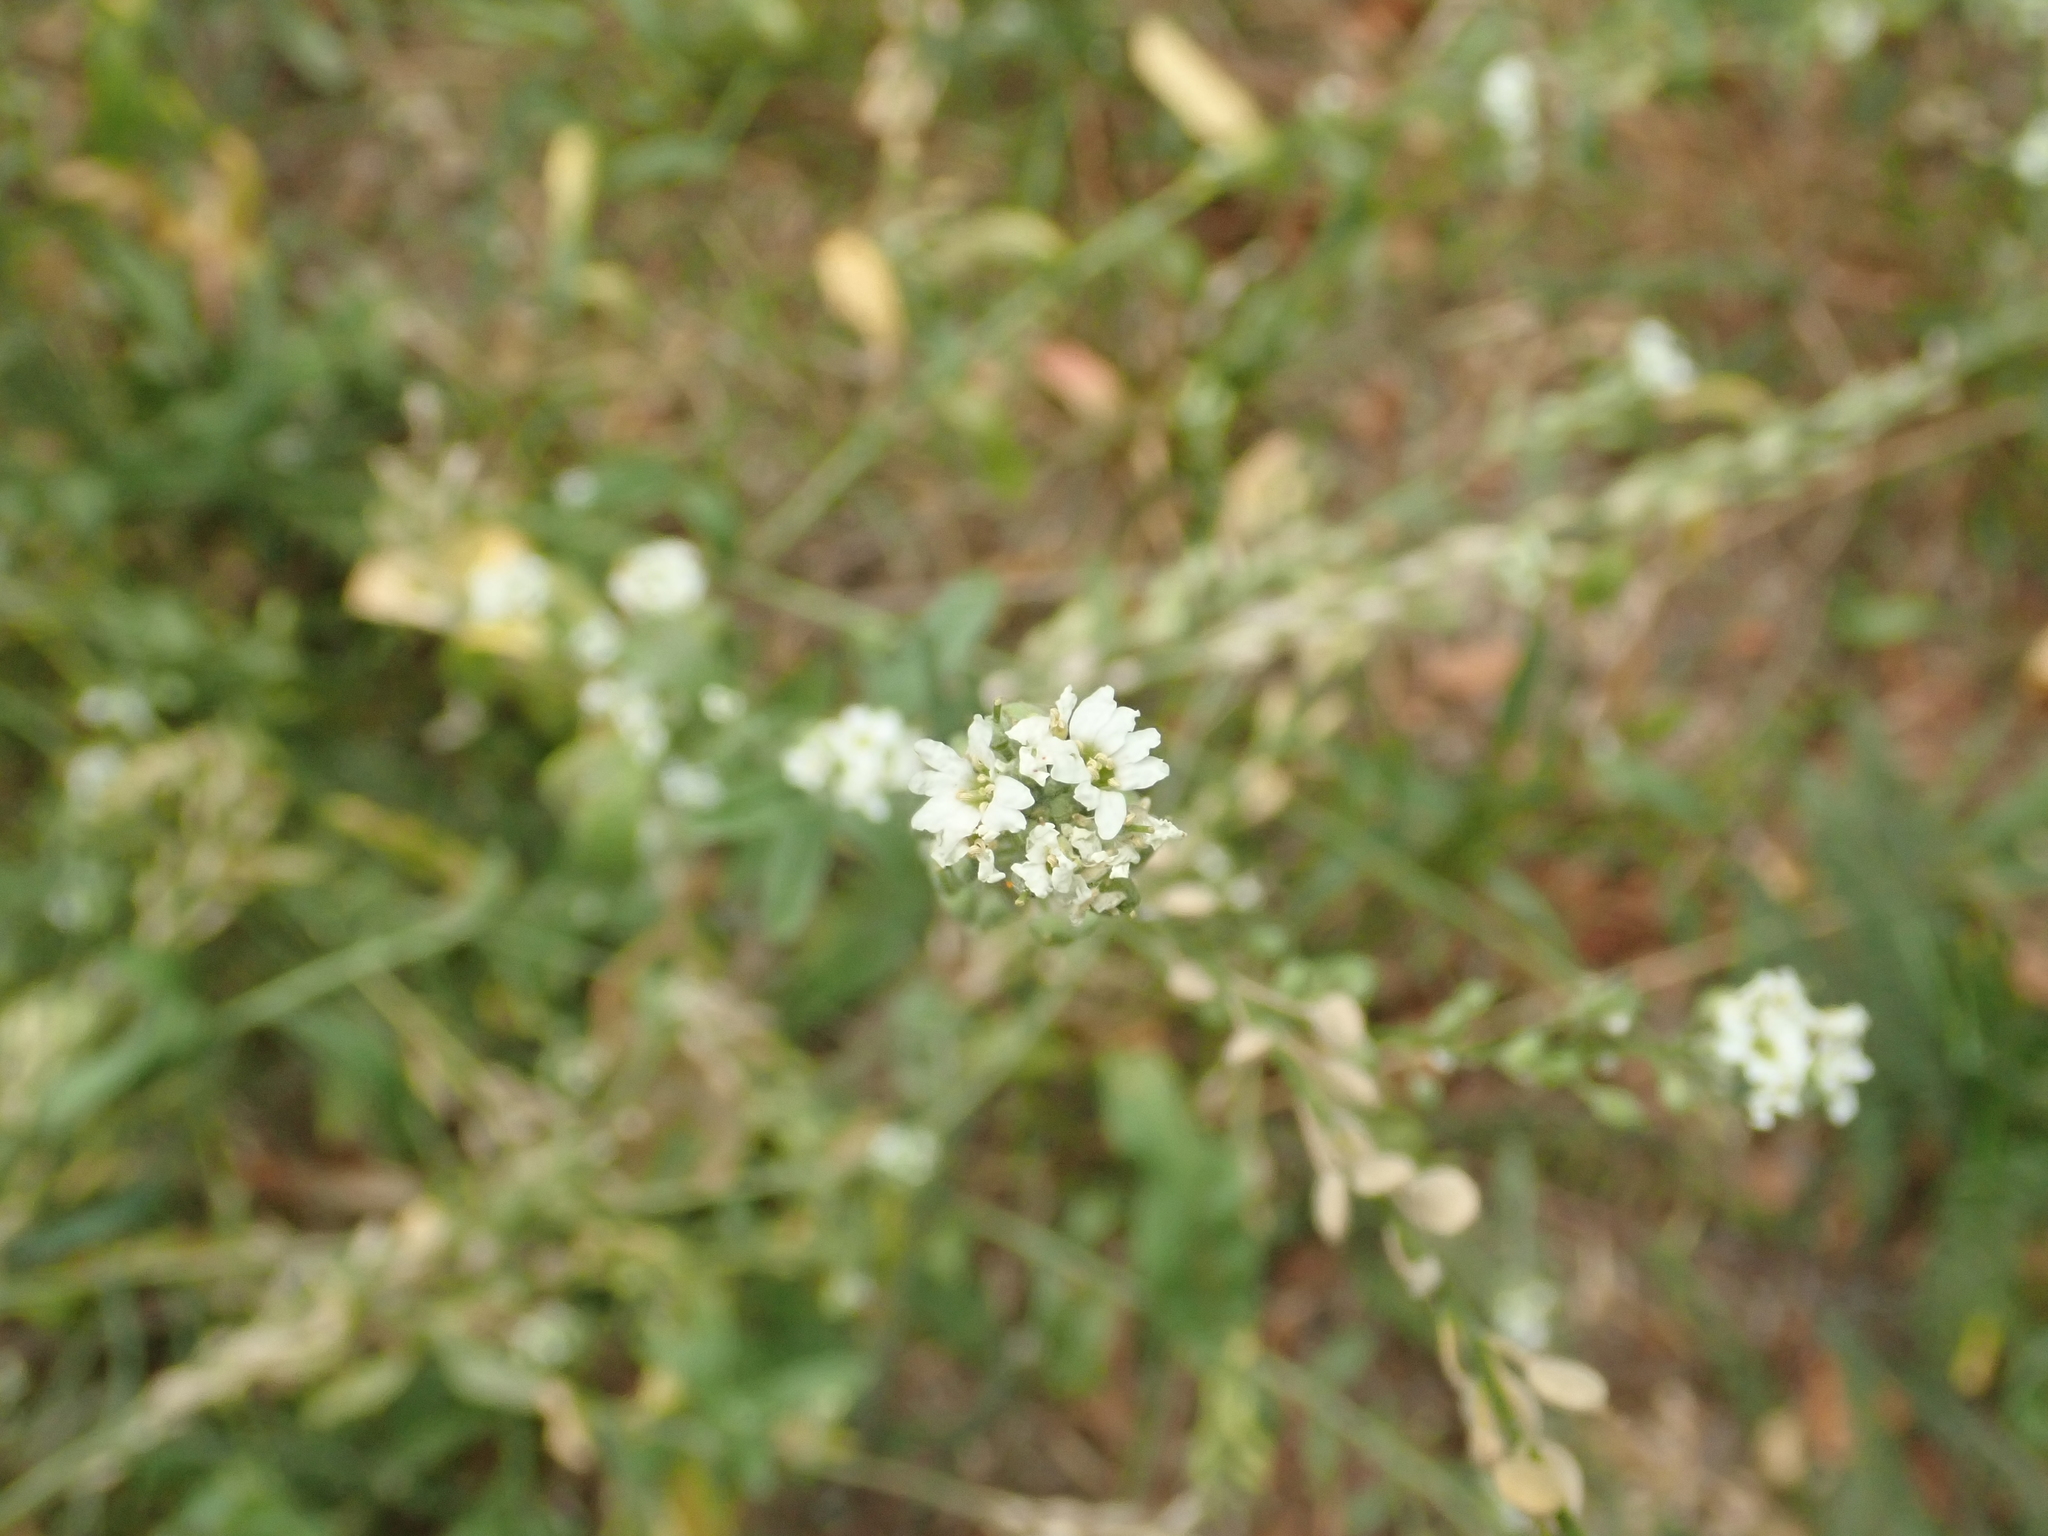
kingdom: Plantae
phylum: Tracheophyta
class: Magnoliopsida
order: Brassicales
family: Brassicaceae
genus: Berteroa
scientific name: Berteroa incana
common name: Hoary alison
